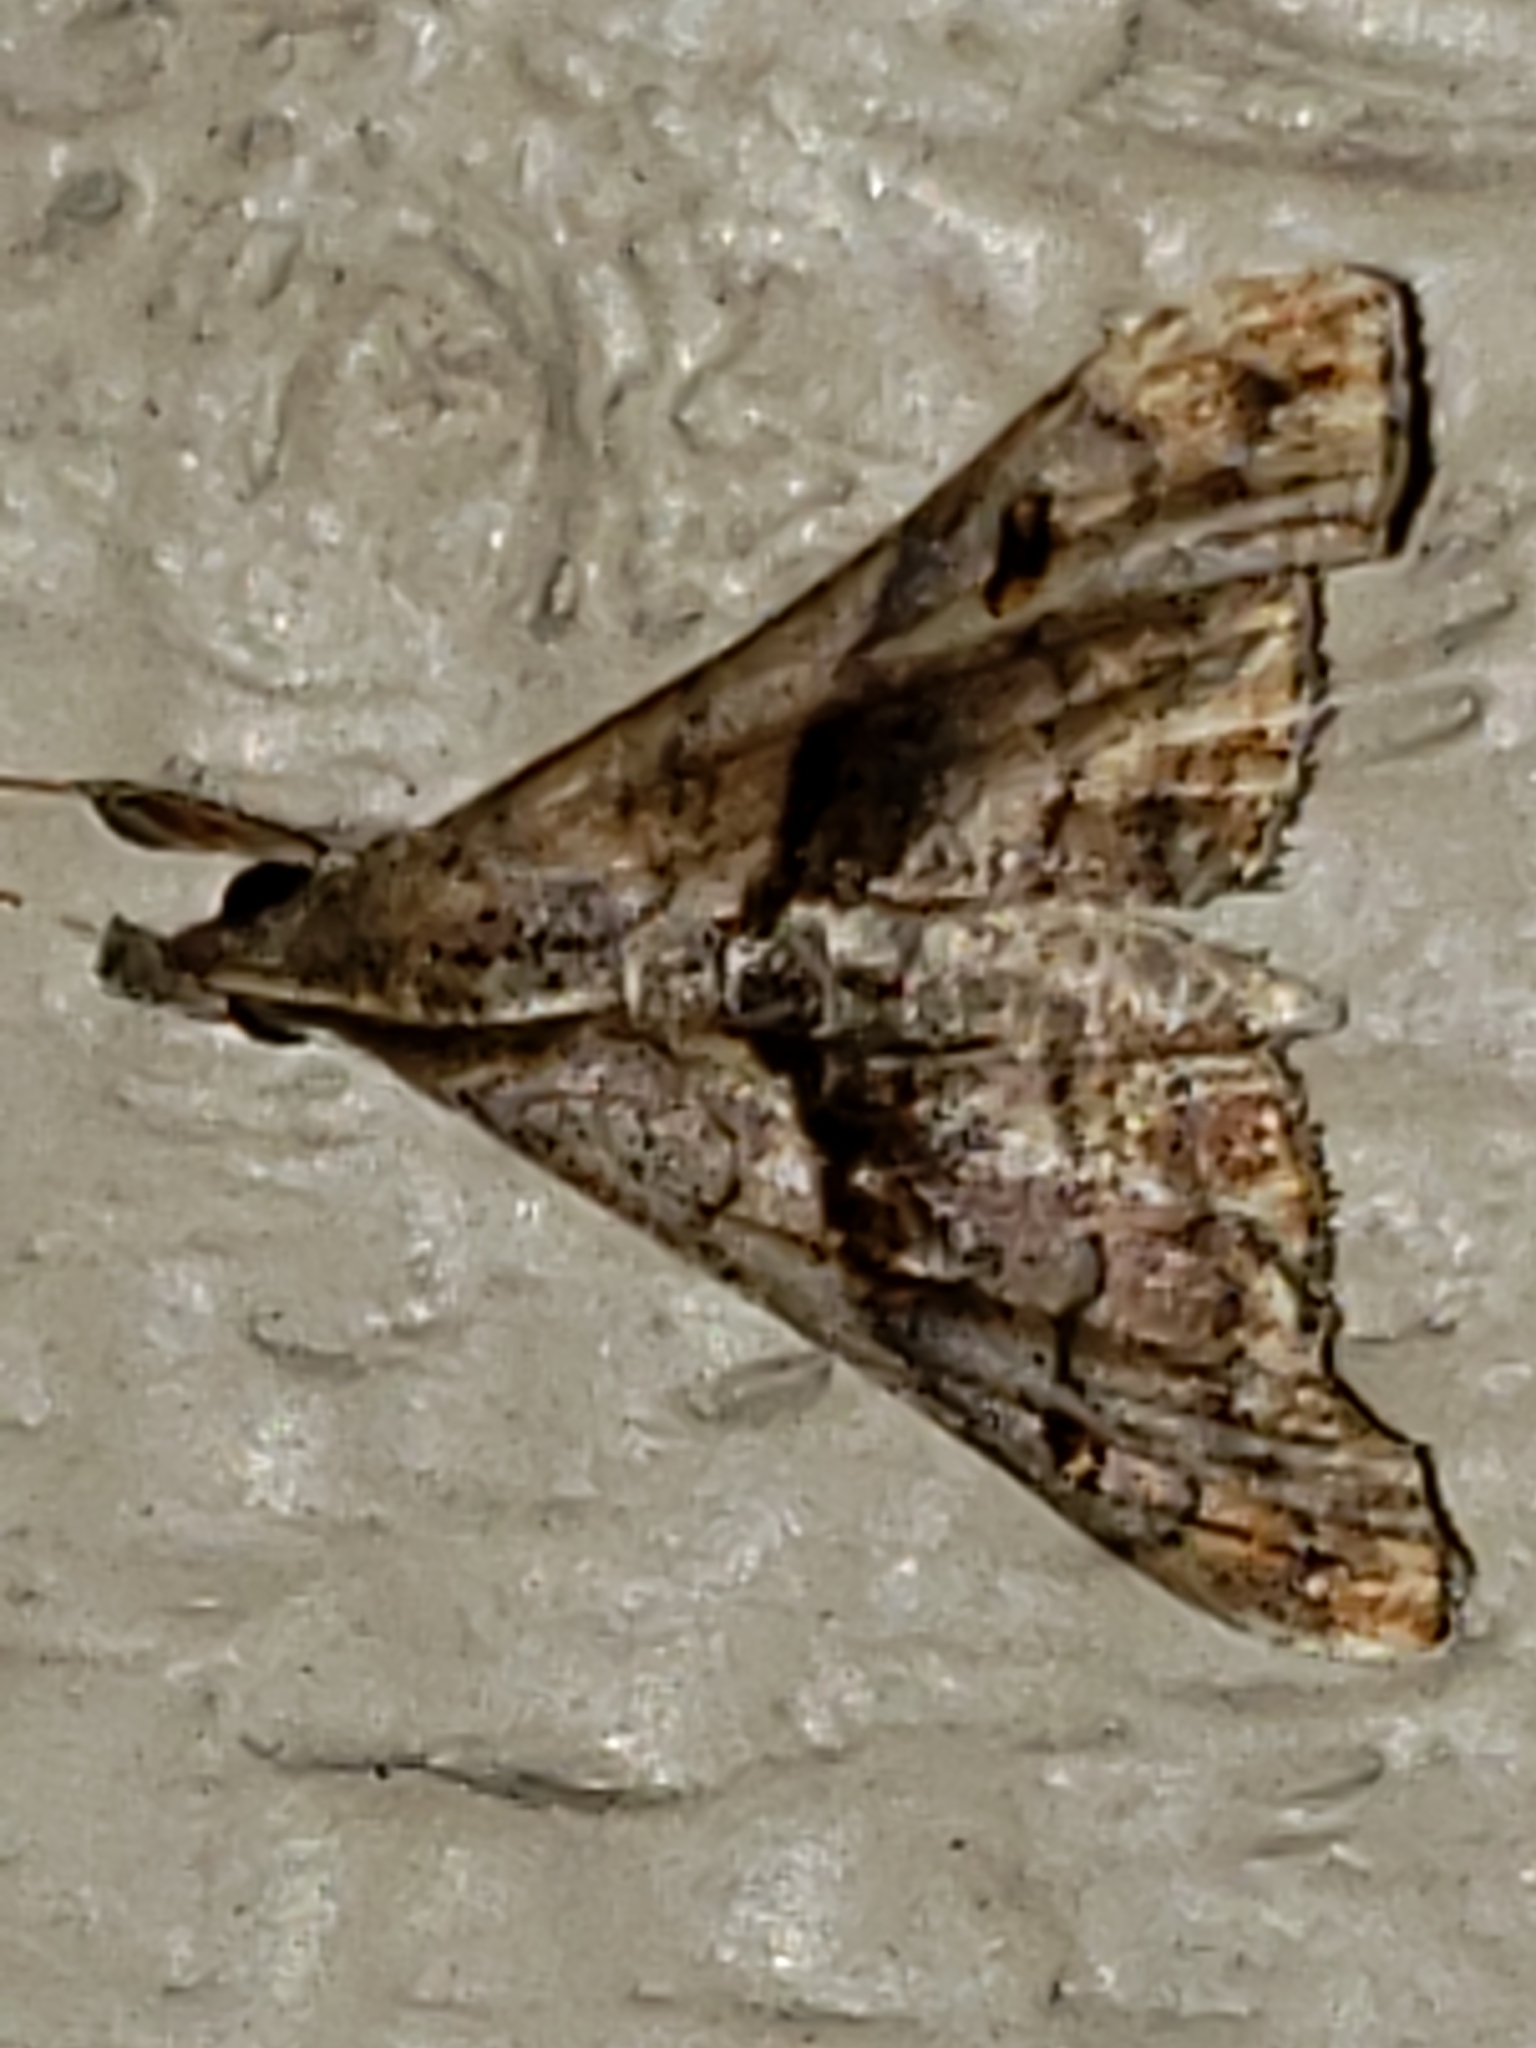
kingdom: Animalia
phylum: Arthropoda
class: Insecta
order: Lepidoptera
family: Erebidae
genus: Palthis
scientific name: Palthis angulalis
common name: Dark-spotted palthis moth
